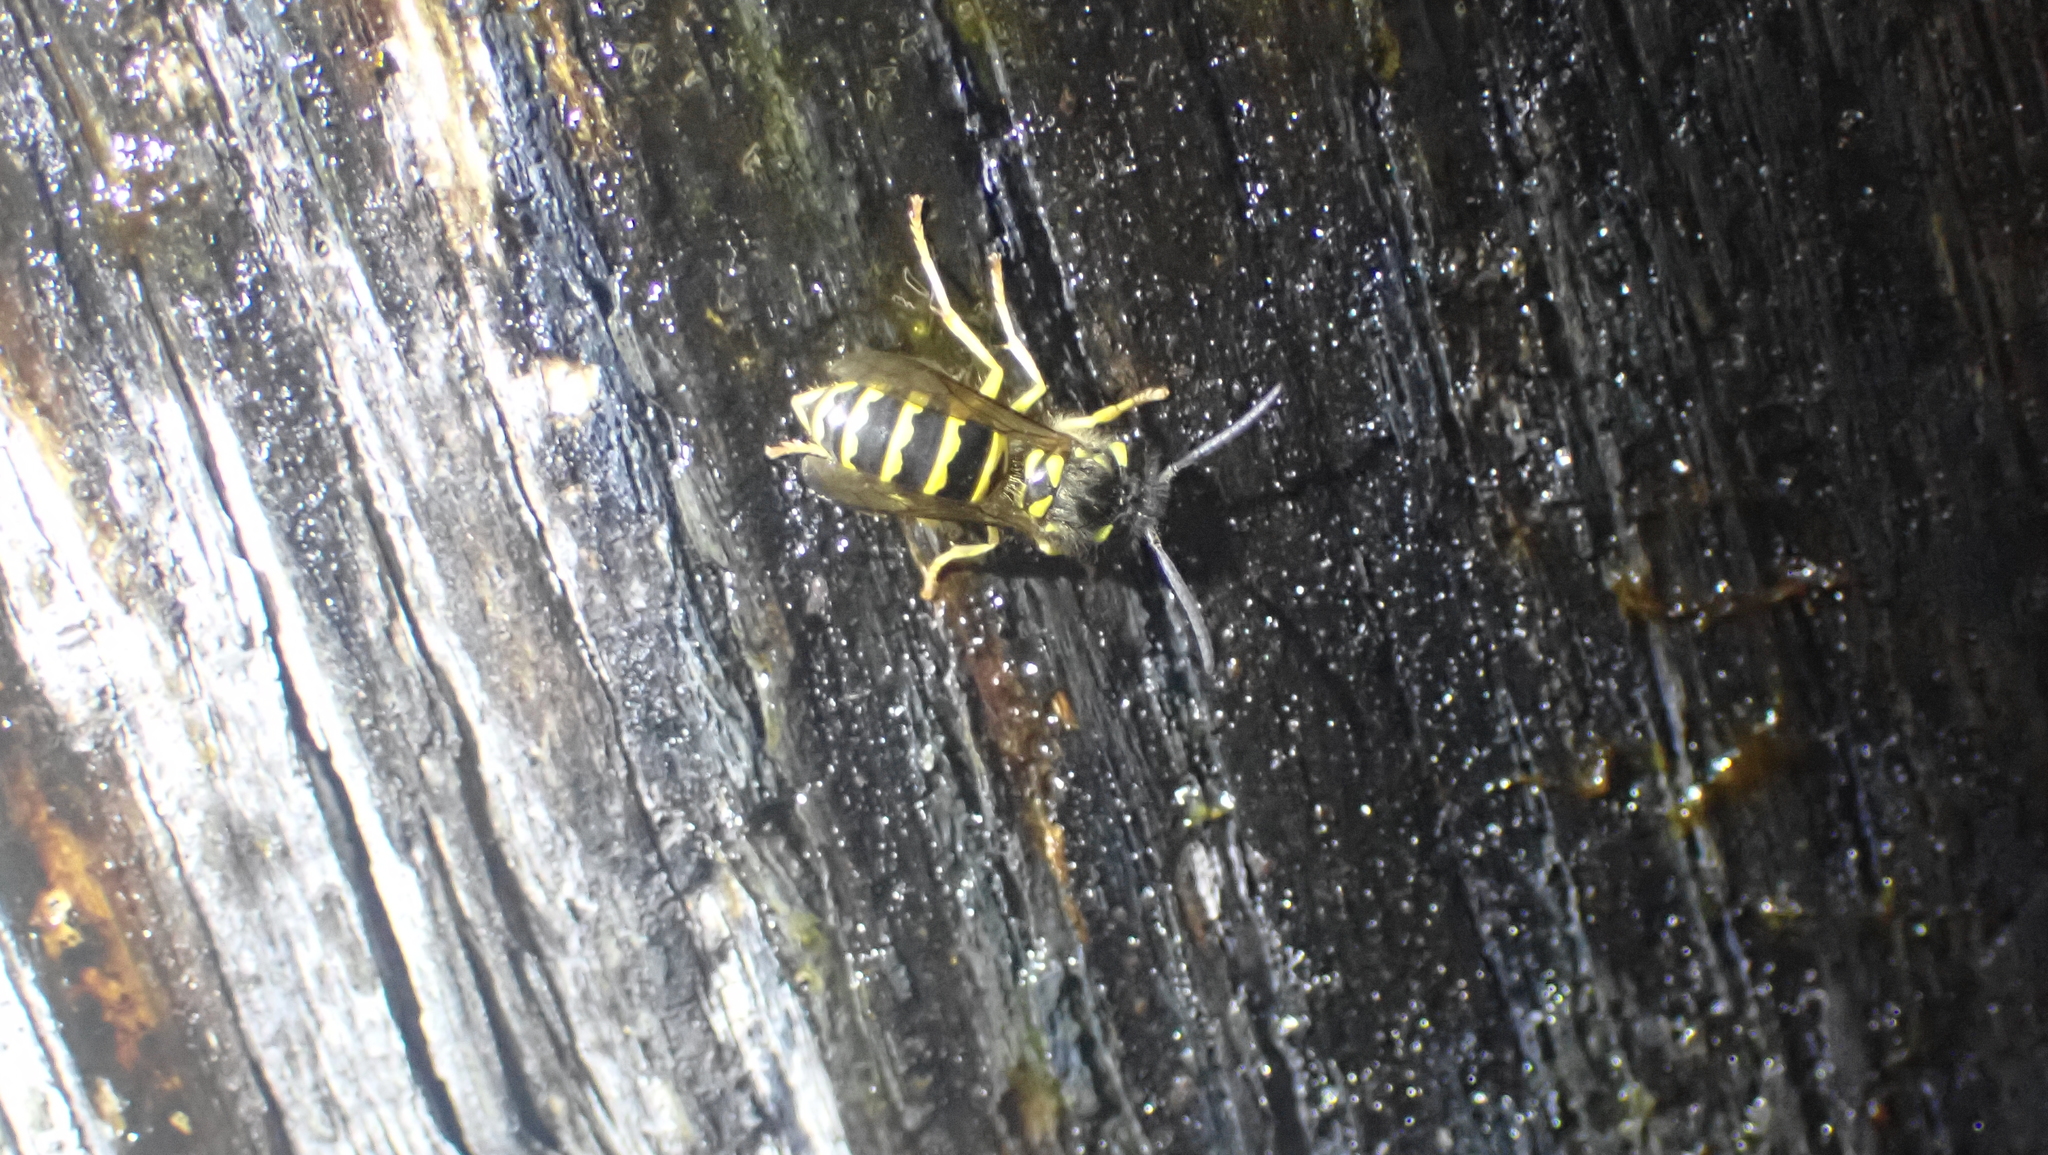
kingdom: Animalia
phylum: Arthropoda
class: Insecta
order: Hymenoptera
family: Vespidae
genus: Vespula
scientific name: Vespula maculifrons
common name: Eastern yellowjacket
